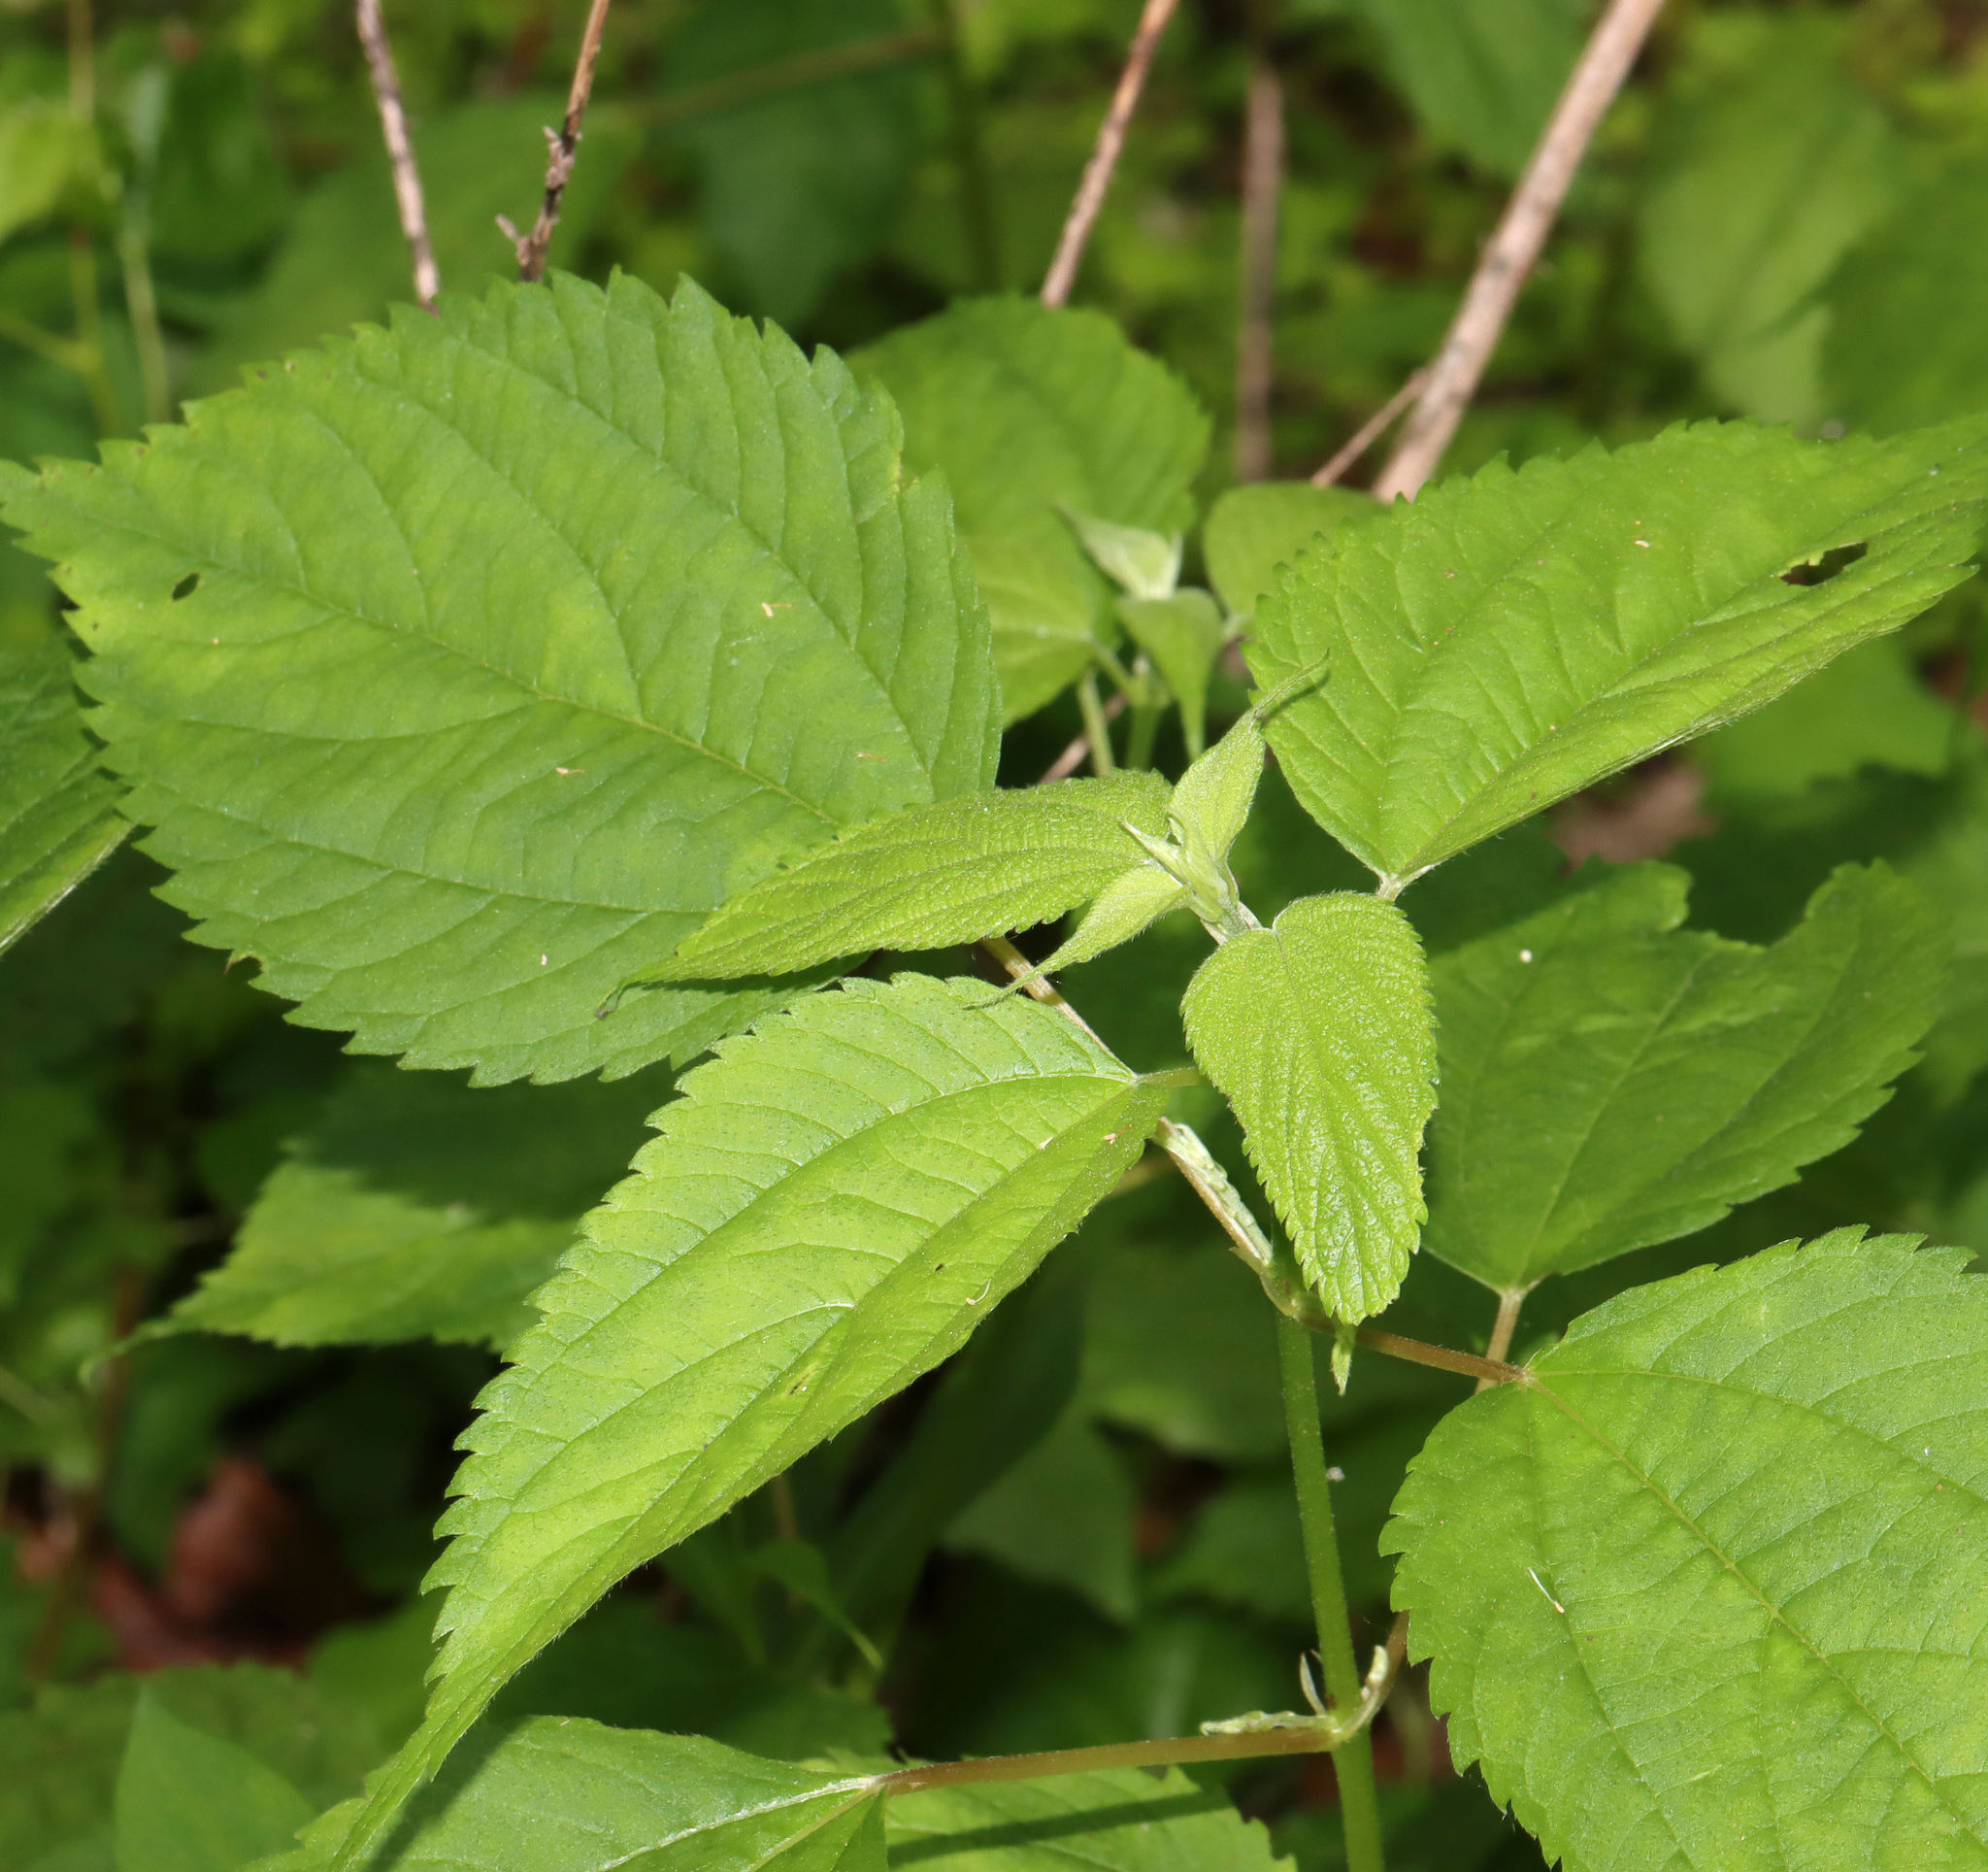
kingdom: Plantae
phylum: Tracheophyta
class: Magnoliopsida
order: Rosales
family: Urticaceae
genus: Boehmeria
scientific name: Boehmeria cylindrica
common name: Bog-hemp
